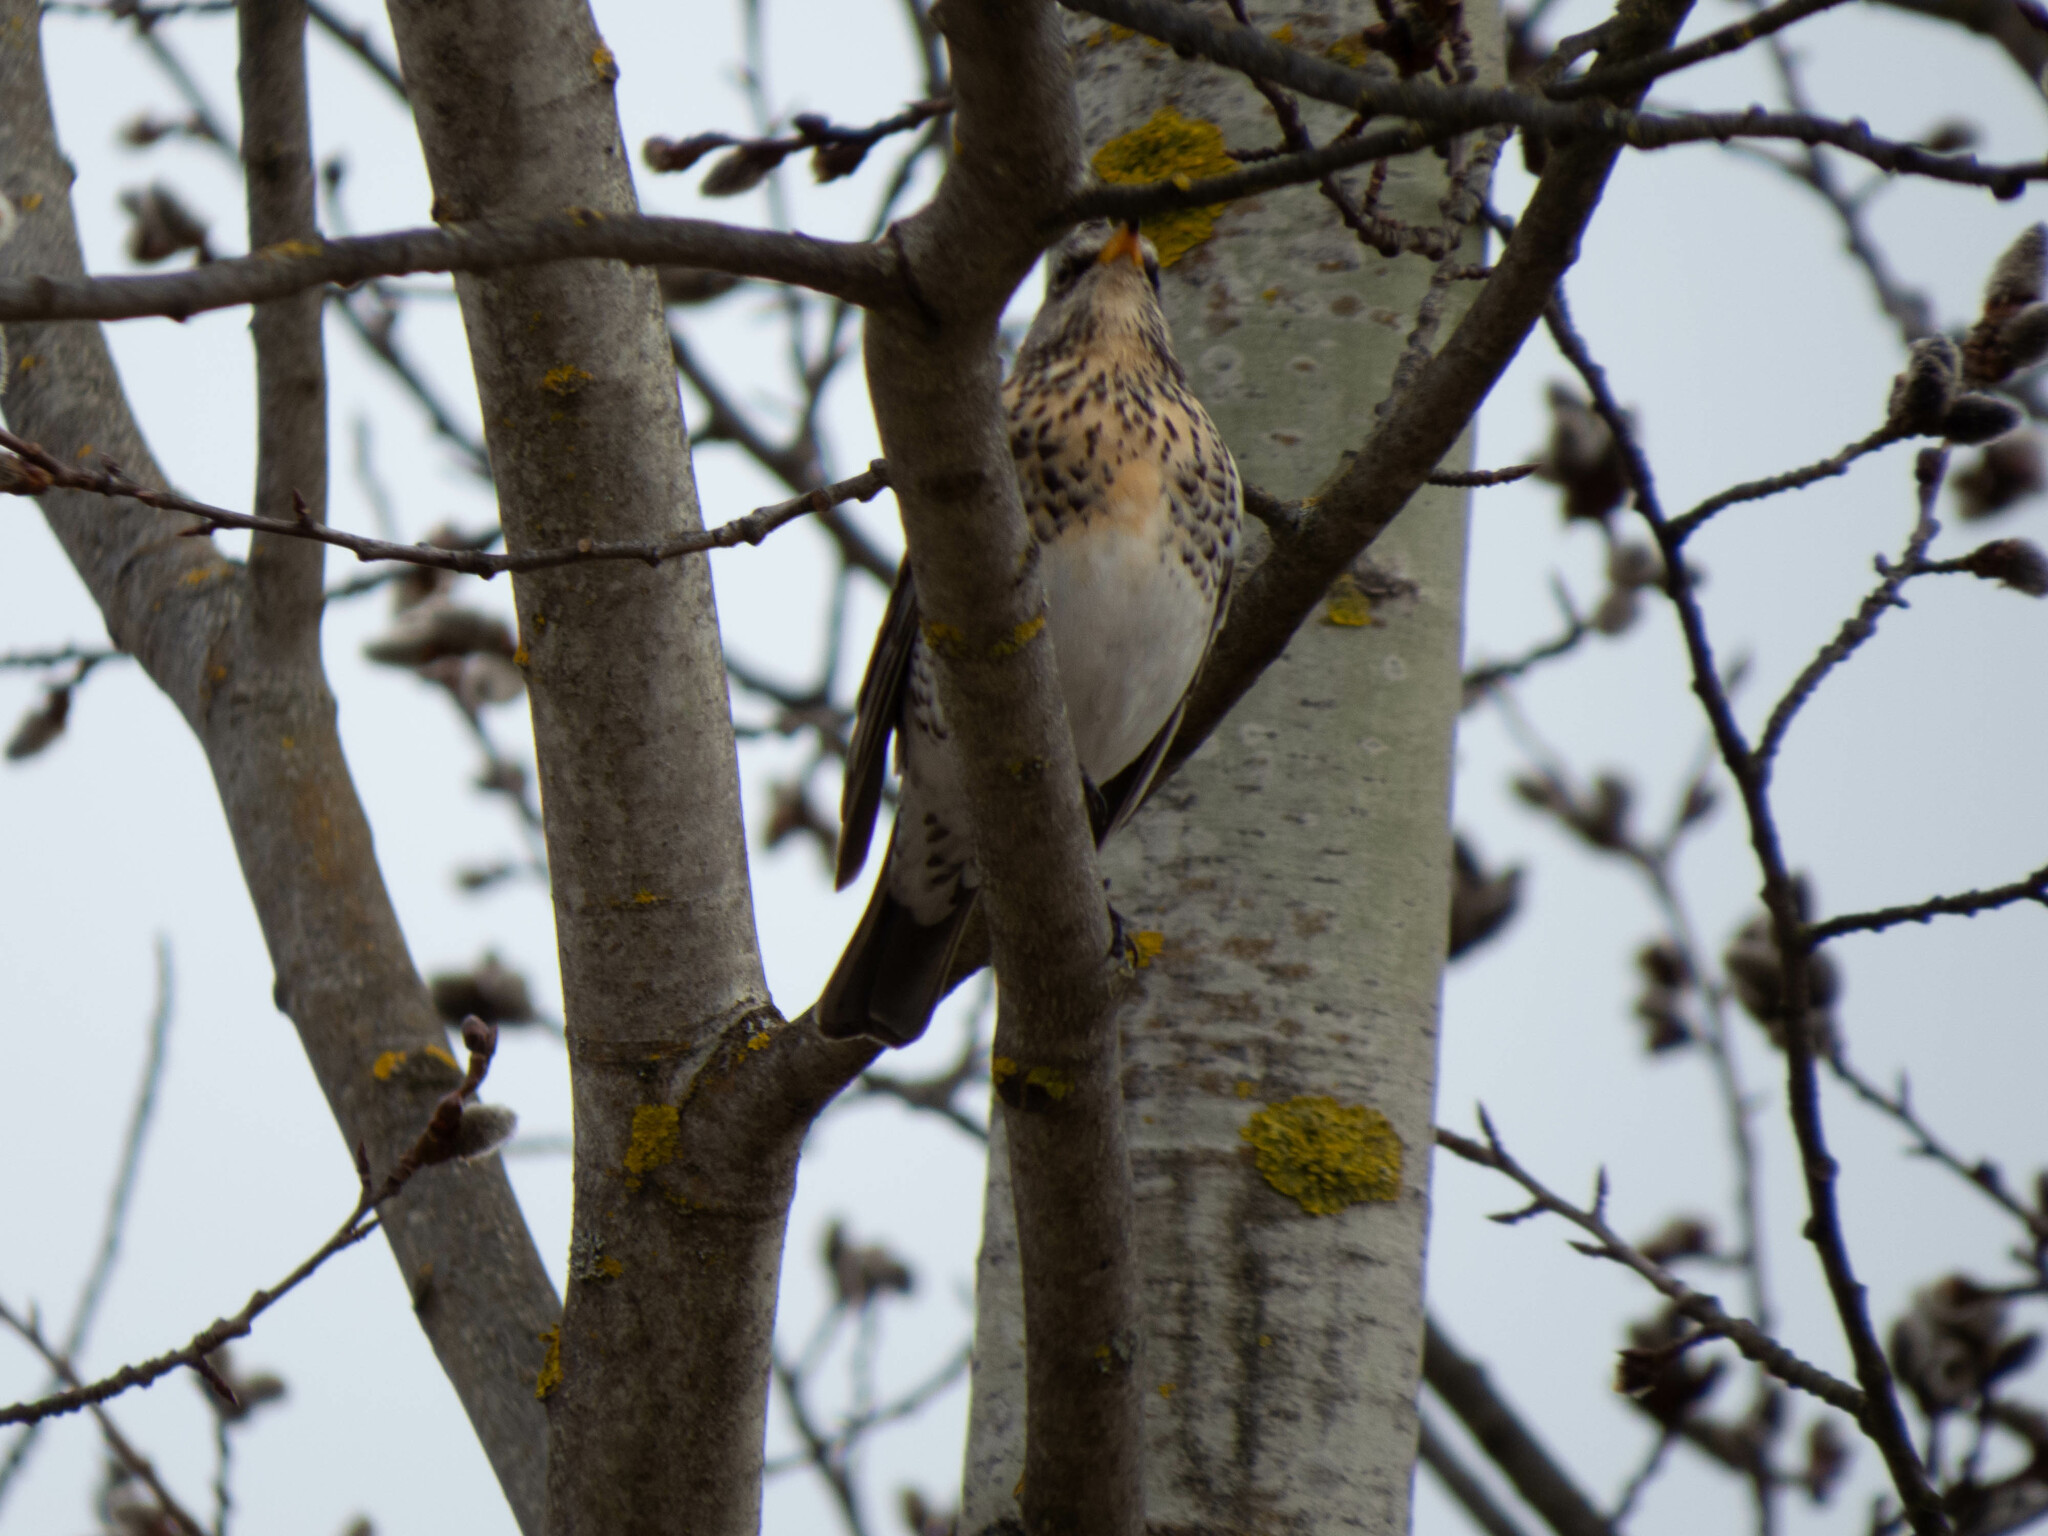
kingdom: Animalia
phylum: Chordata
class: Aves
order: Passeriformes
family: Turdidae
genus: Turdus
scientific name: Turdus pilaris
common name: Fieldfare
